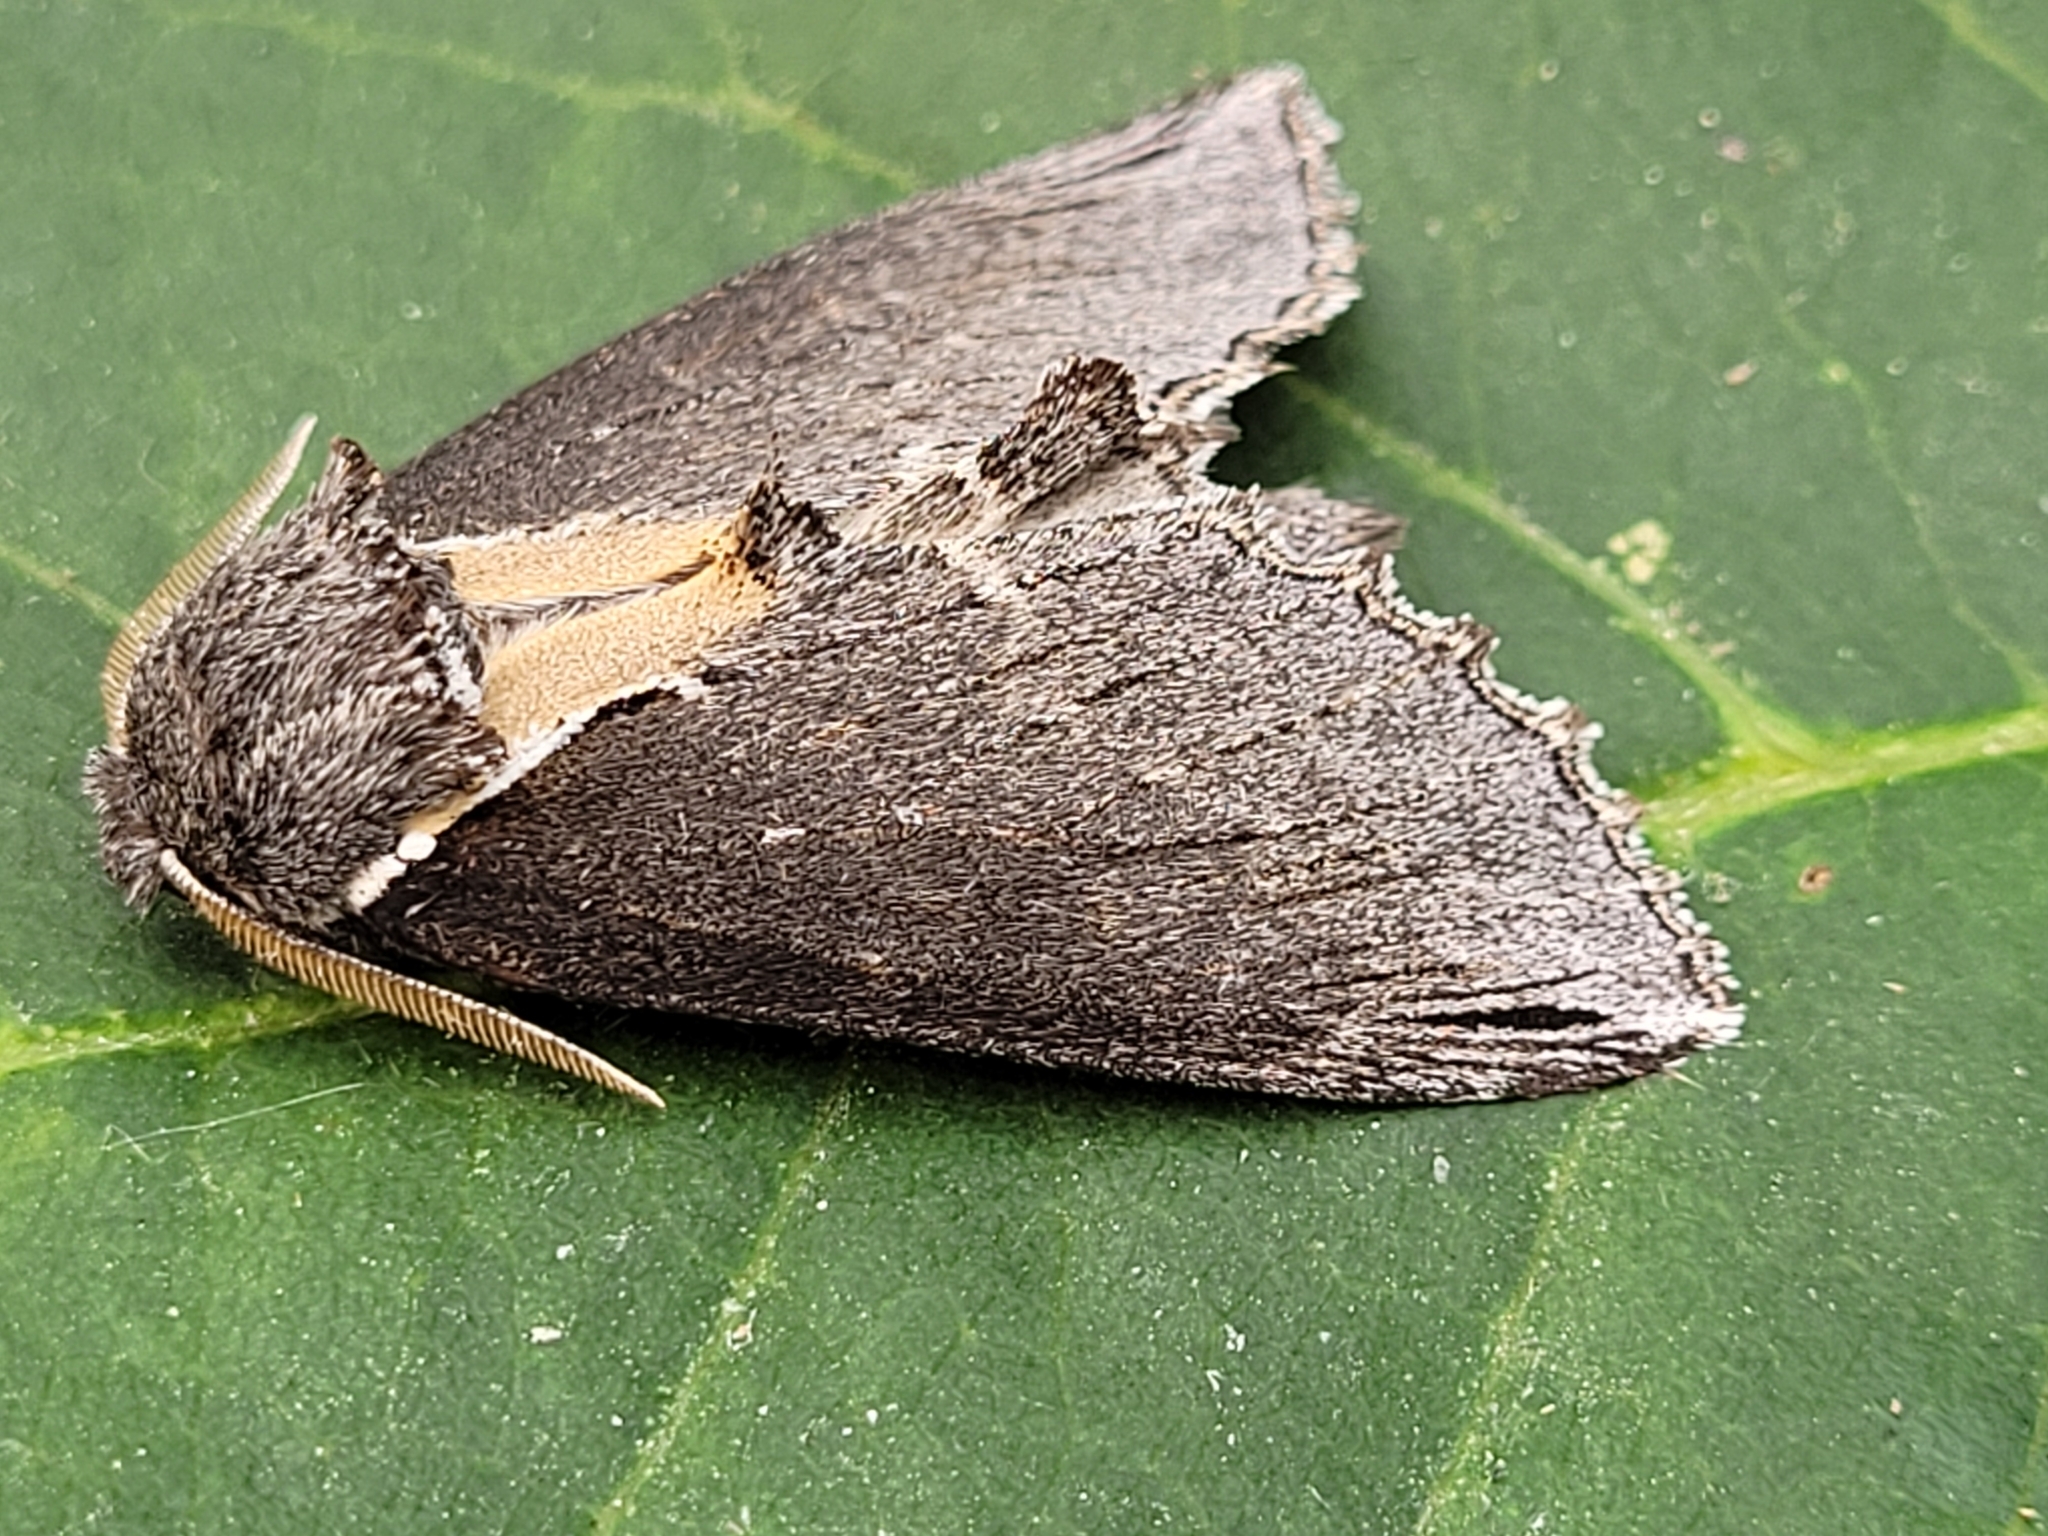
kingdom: Animalia
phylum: Arthropoda
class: Insecta
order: Lepidoptera
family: Notodontidae
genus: Pheosidea
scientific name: Pheosidea elegans
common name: Elegant prominent
